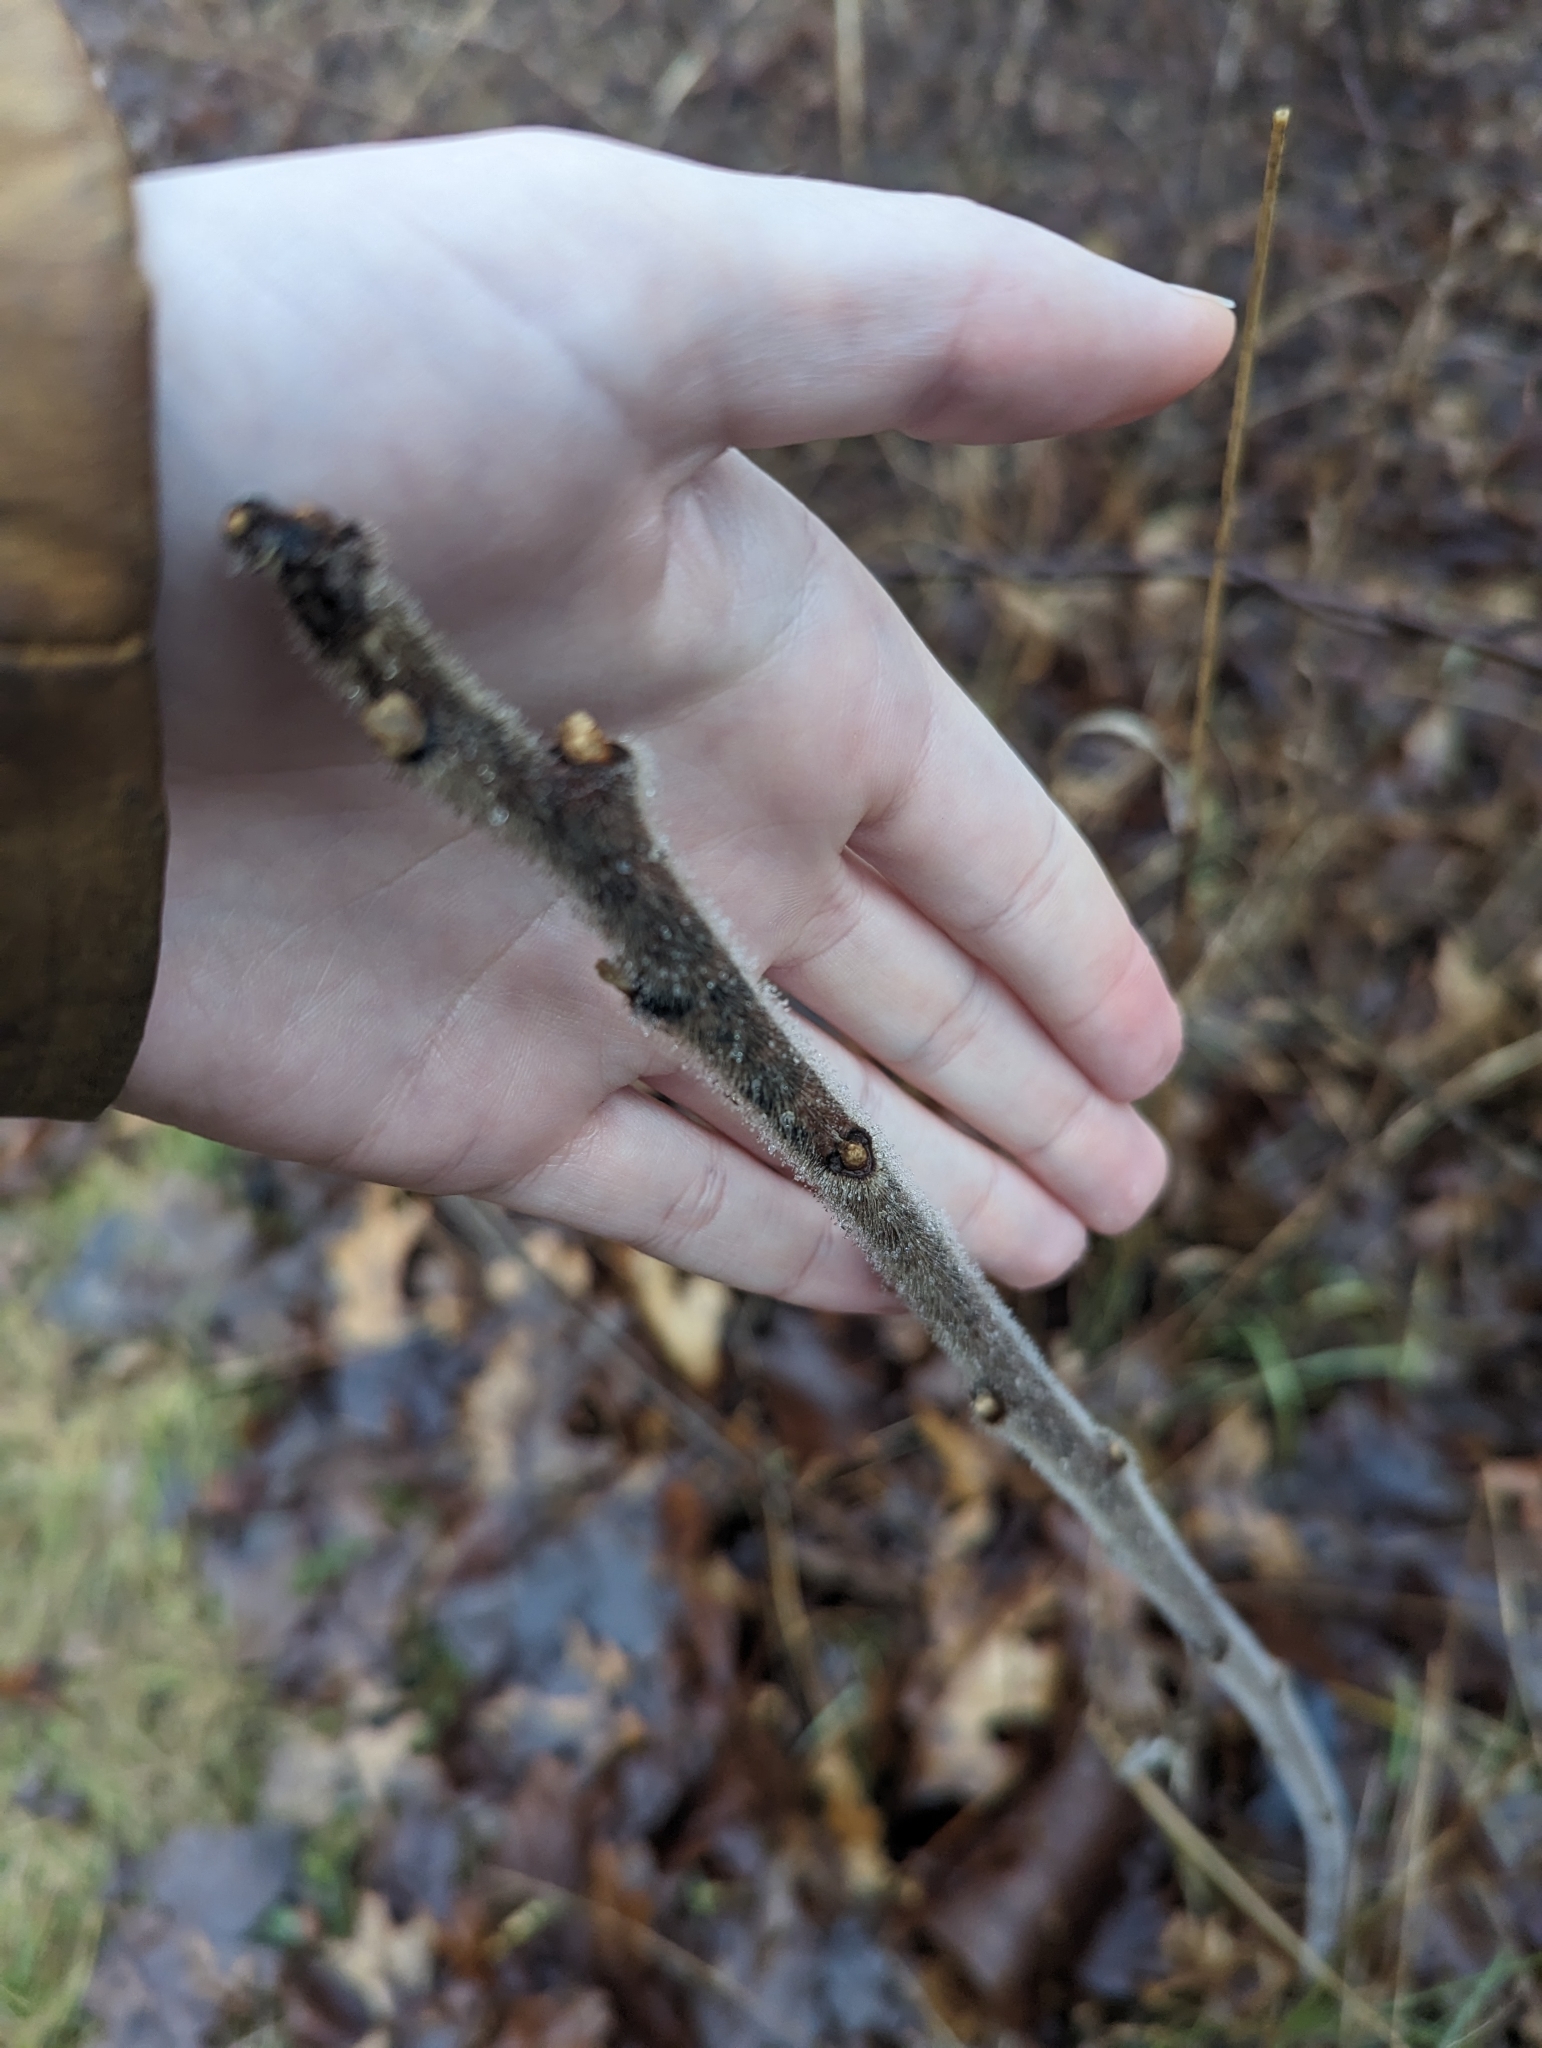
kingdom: Plantae
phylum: Tracheophyta
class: Magnoliopsida
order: Sapindales
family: Anacardiaceae
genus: Rhus
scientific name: Rhus typhina
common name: Staghorn sumac
